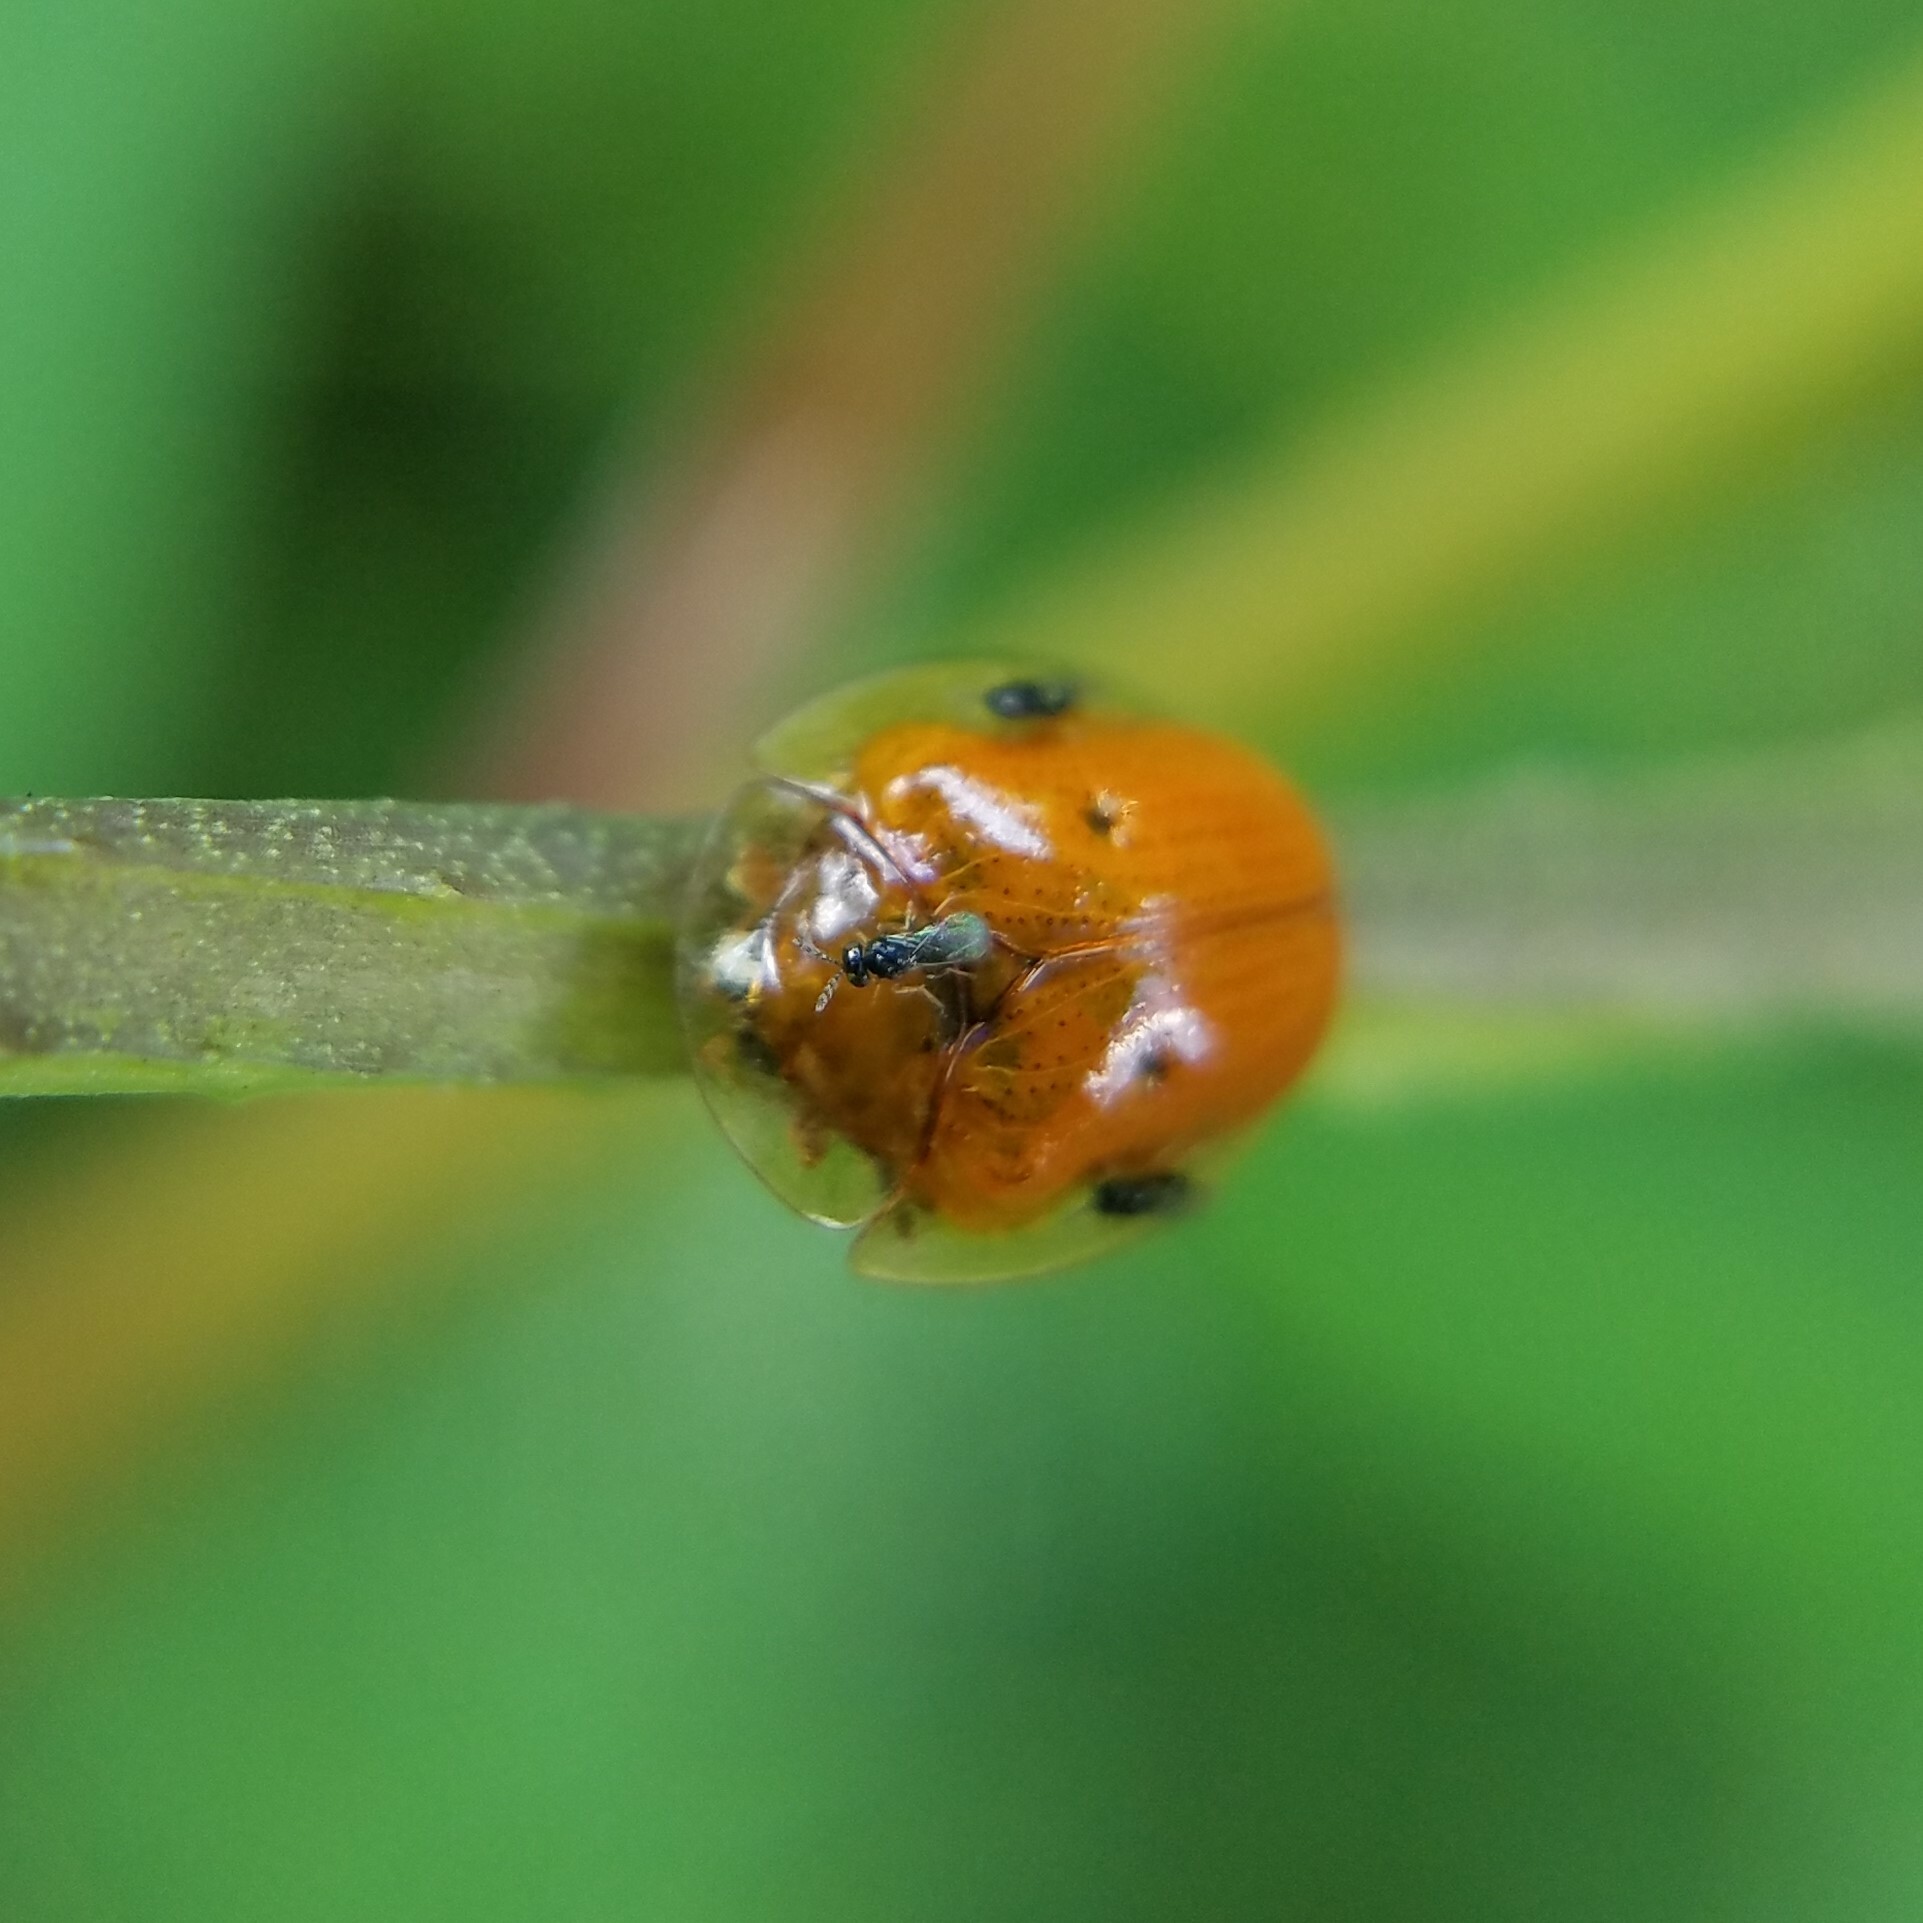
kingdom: Animalia
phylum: Arthropoda
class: Insecta
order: Coleoptera
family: Chrysomelidae
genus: Charidotella
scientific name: Charidotella sexpunctata
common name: Golden tortoise beetle
